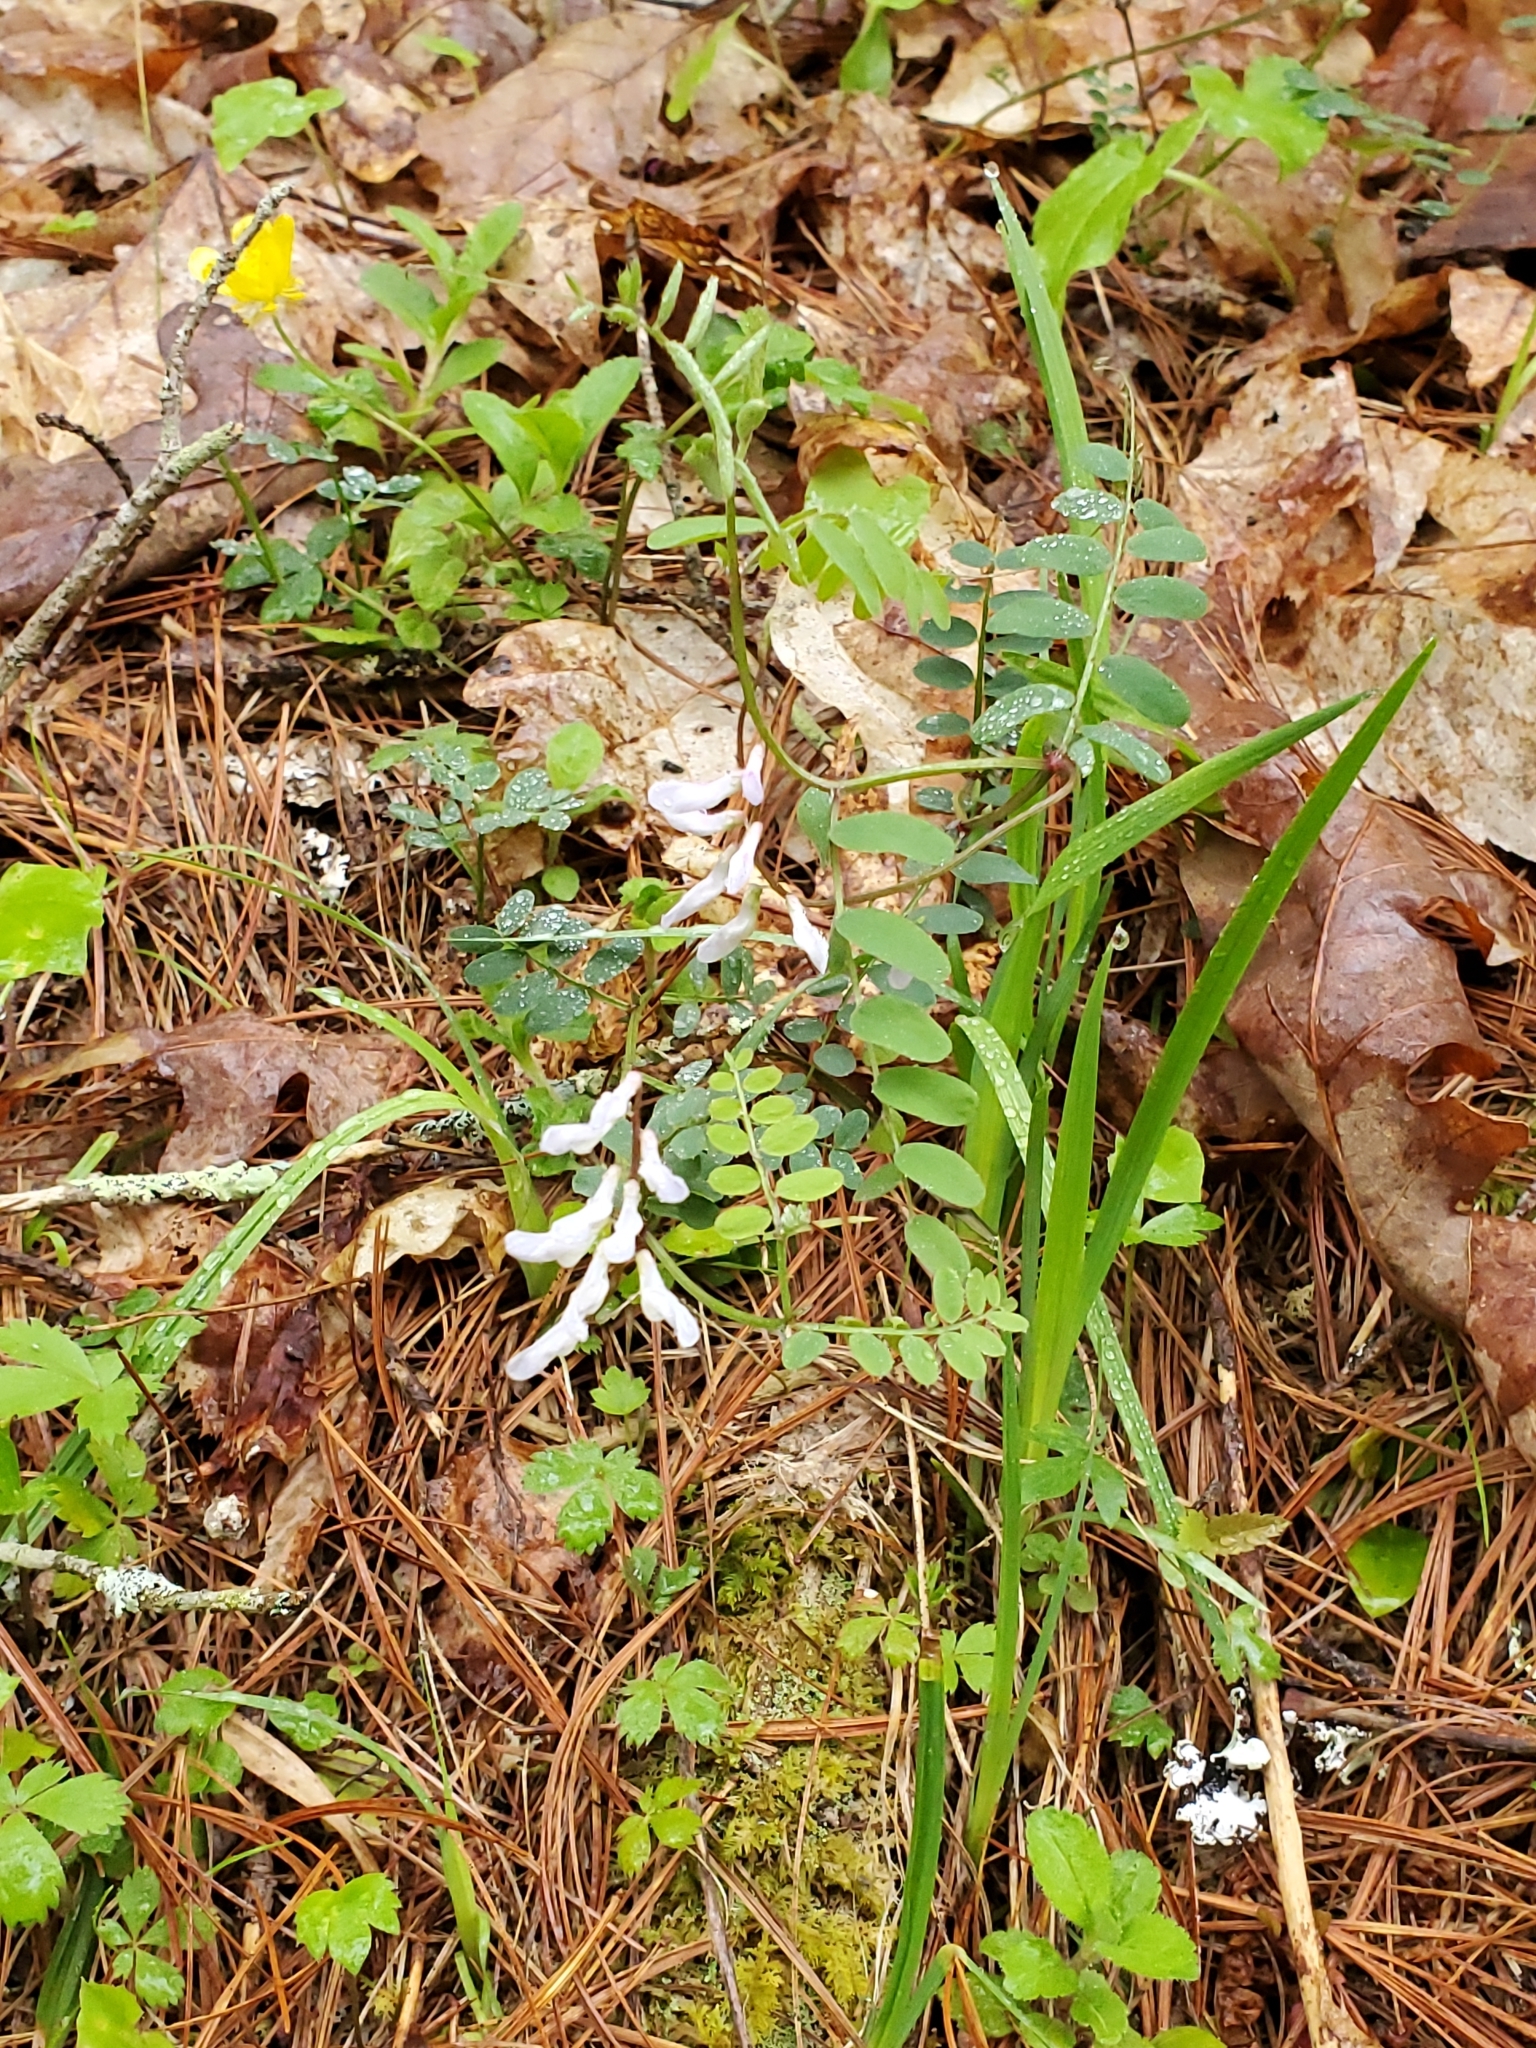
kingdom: Plantae
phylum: Tracheophyta
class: Magnoliopsida
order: Fabales
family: Fabaceae
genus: Vicia
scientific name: Vicia caroliniana
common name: Carolina vetch
